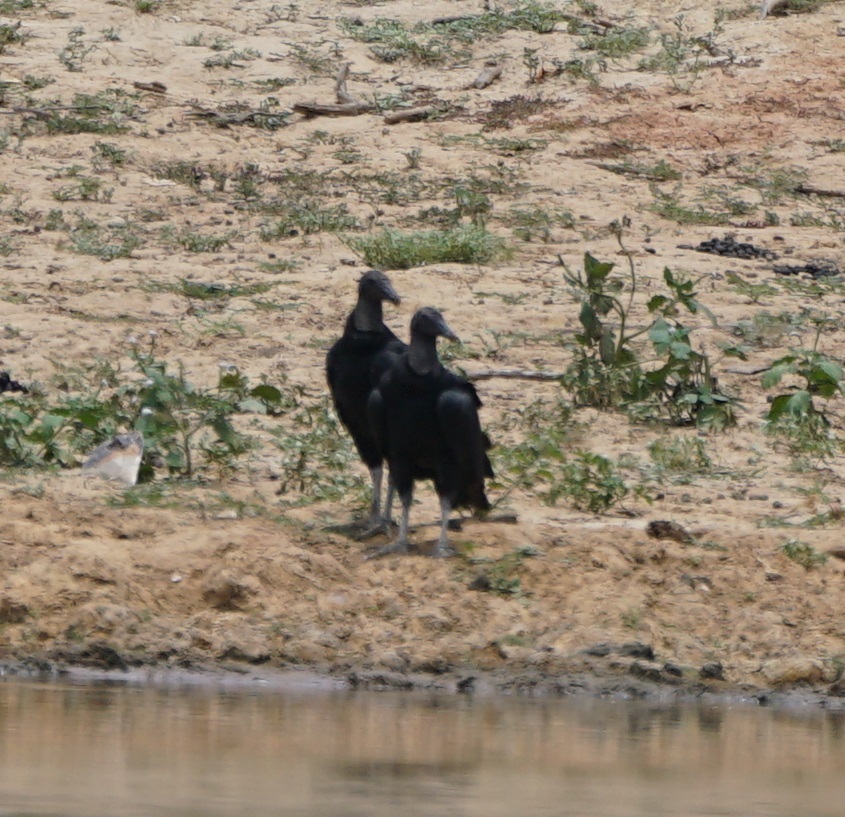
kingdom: Animalia
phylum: Chordata
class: Aves
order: Accipitriformes
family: Cathartidae
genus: Coragyps
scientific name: Coragyps atratus
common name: Black vulture
